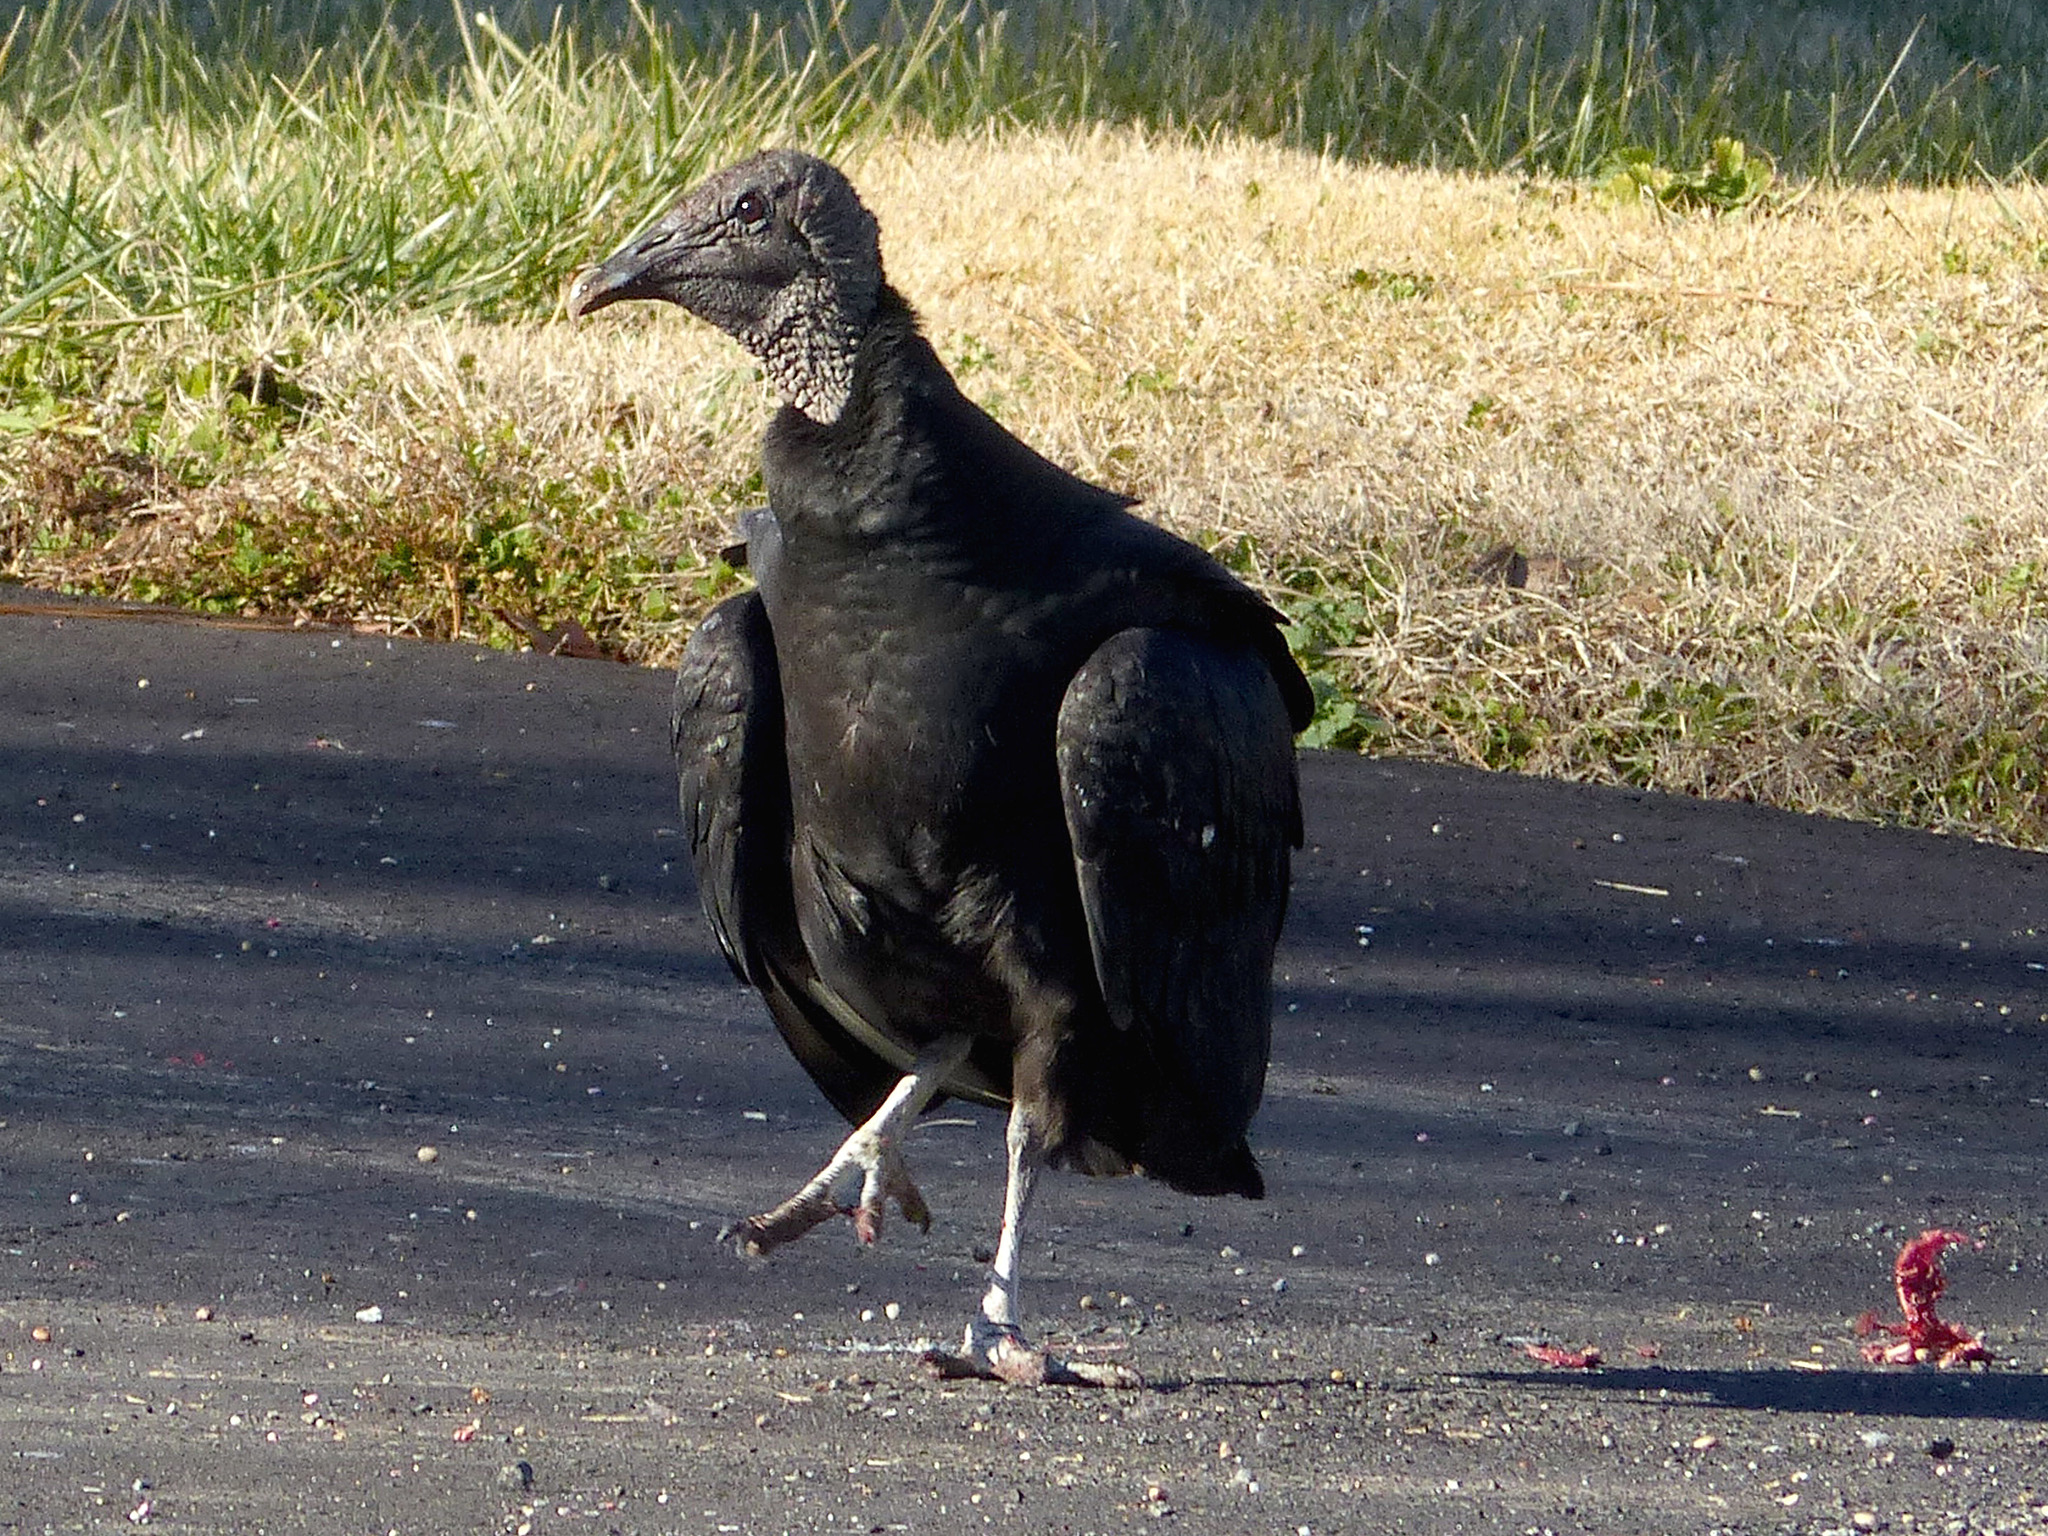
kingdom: Animalia
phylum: Chordata
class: Aves
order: Accipitriformes
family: Cathartidae
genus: Coragyps
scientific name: Coragyps atratus
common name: Black vulture
